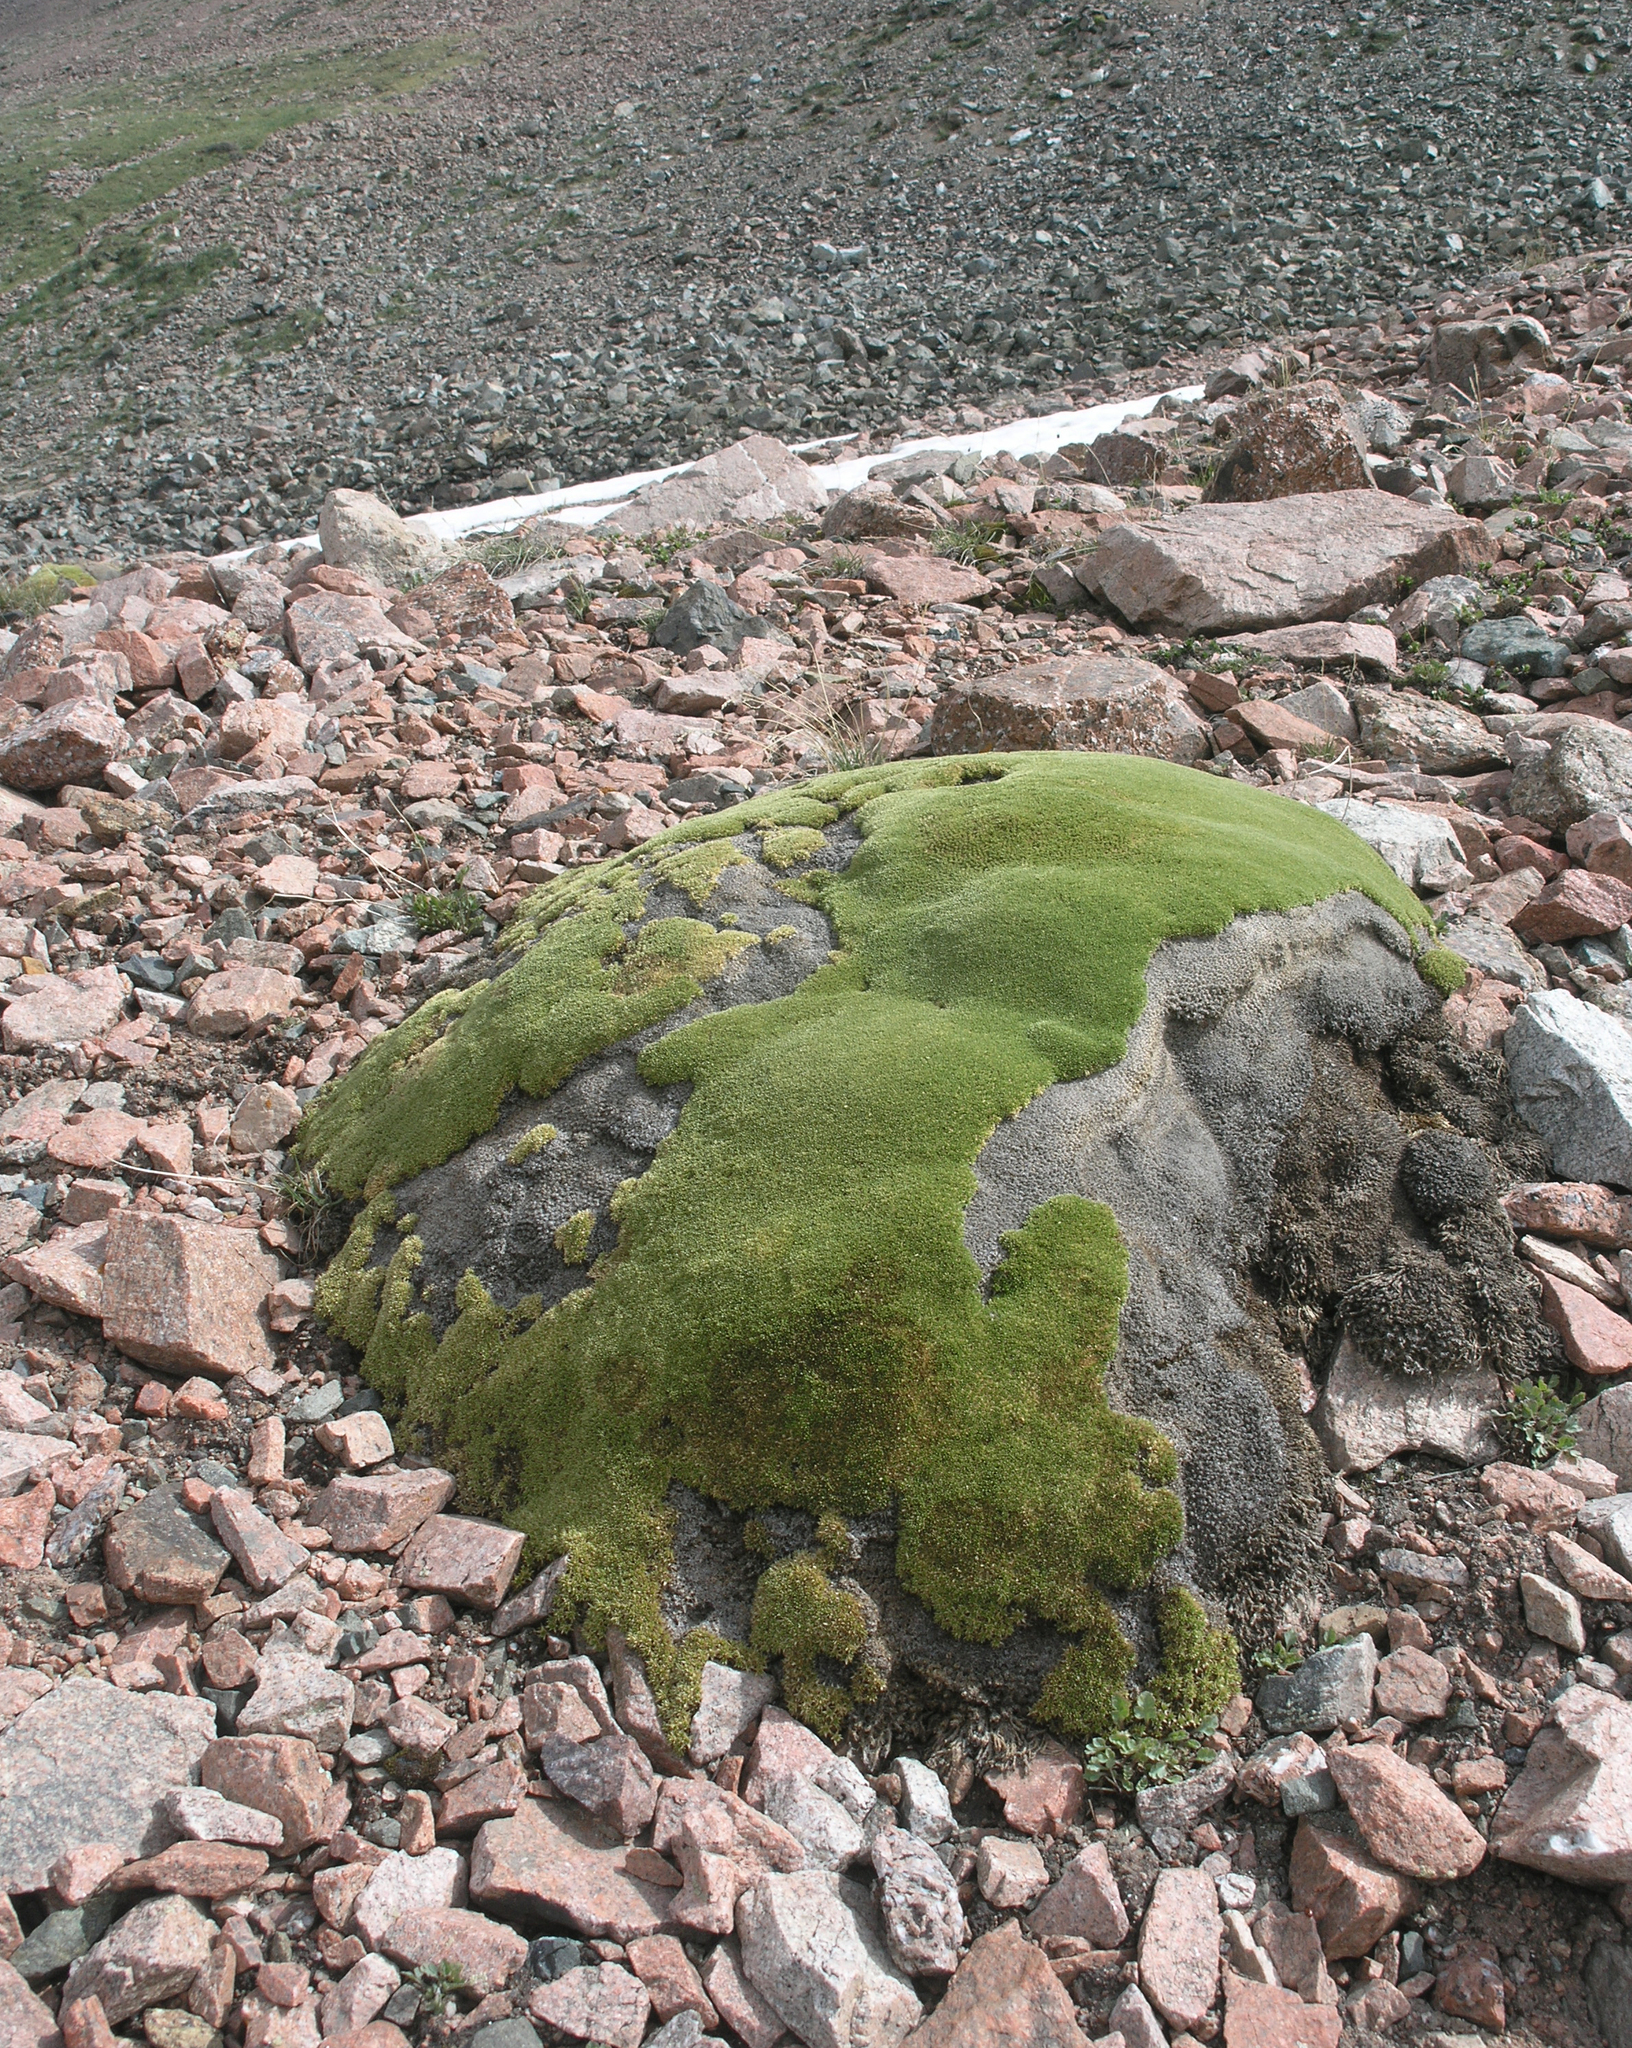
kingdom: Plantae
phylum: Tracheophyta
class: Magnoliopsida
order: Caryophyllales
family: Caryophyllaceae
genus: Thylacospermum
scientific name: Thylacospermum caespitosum
